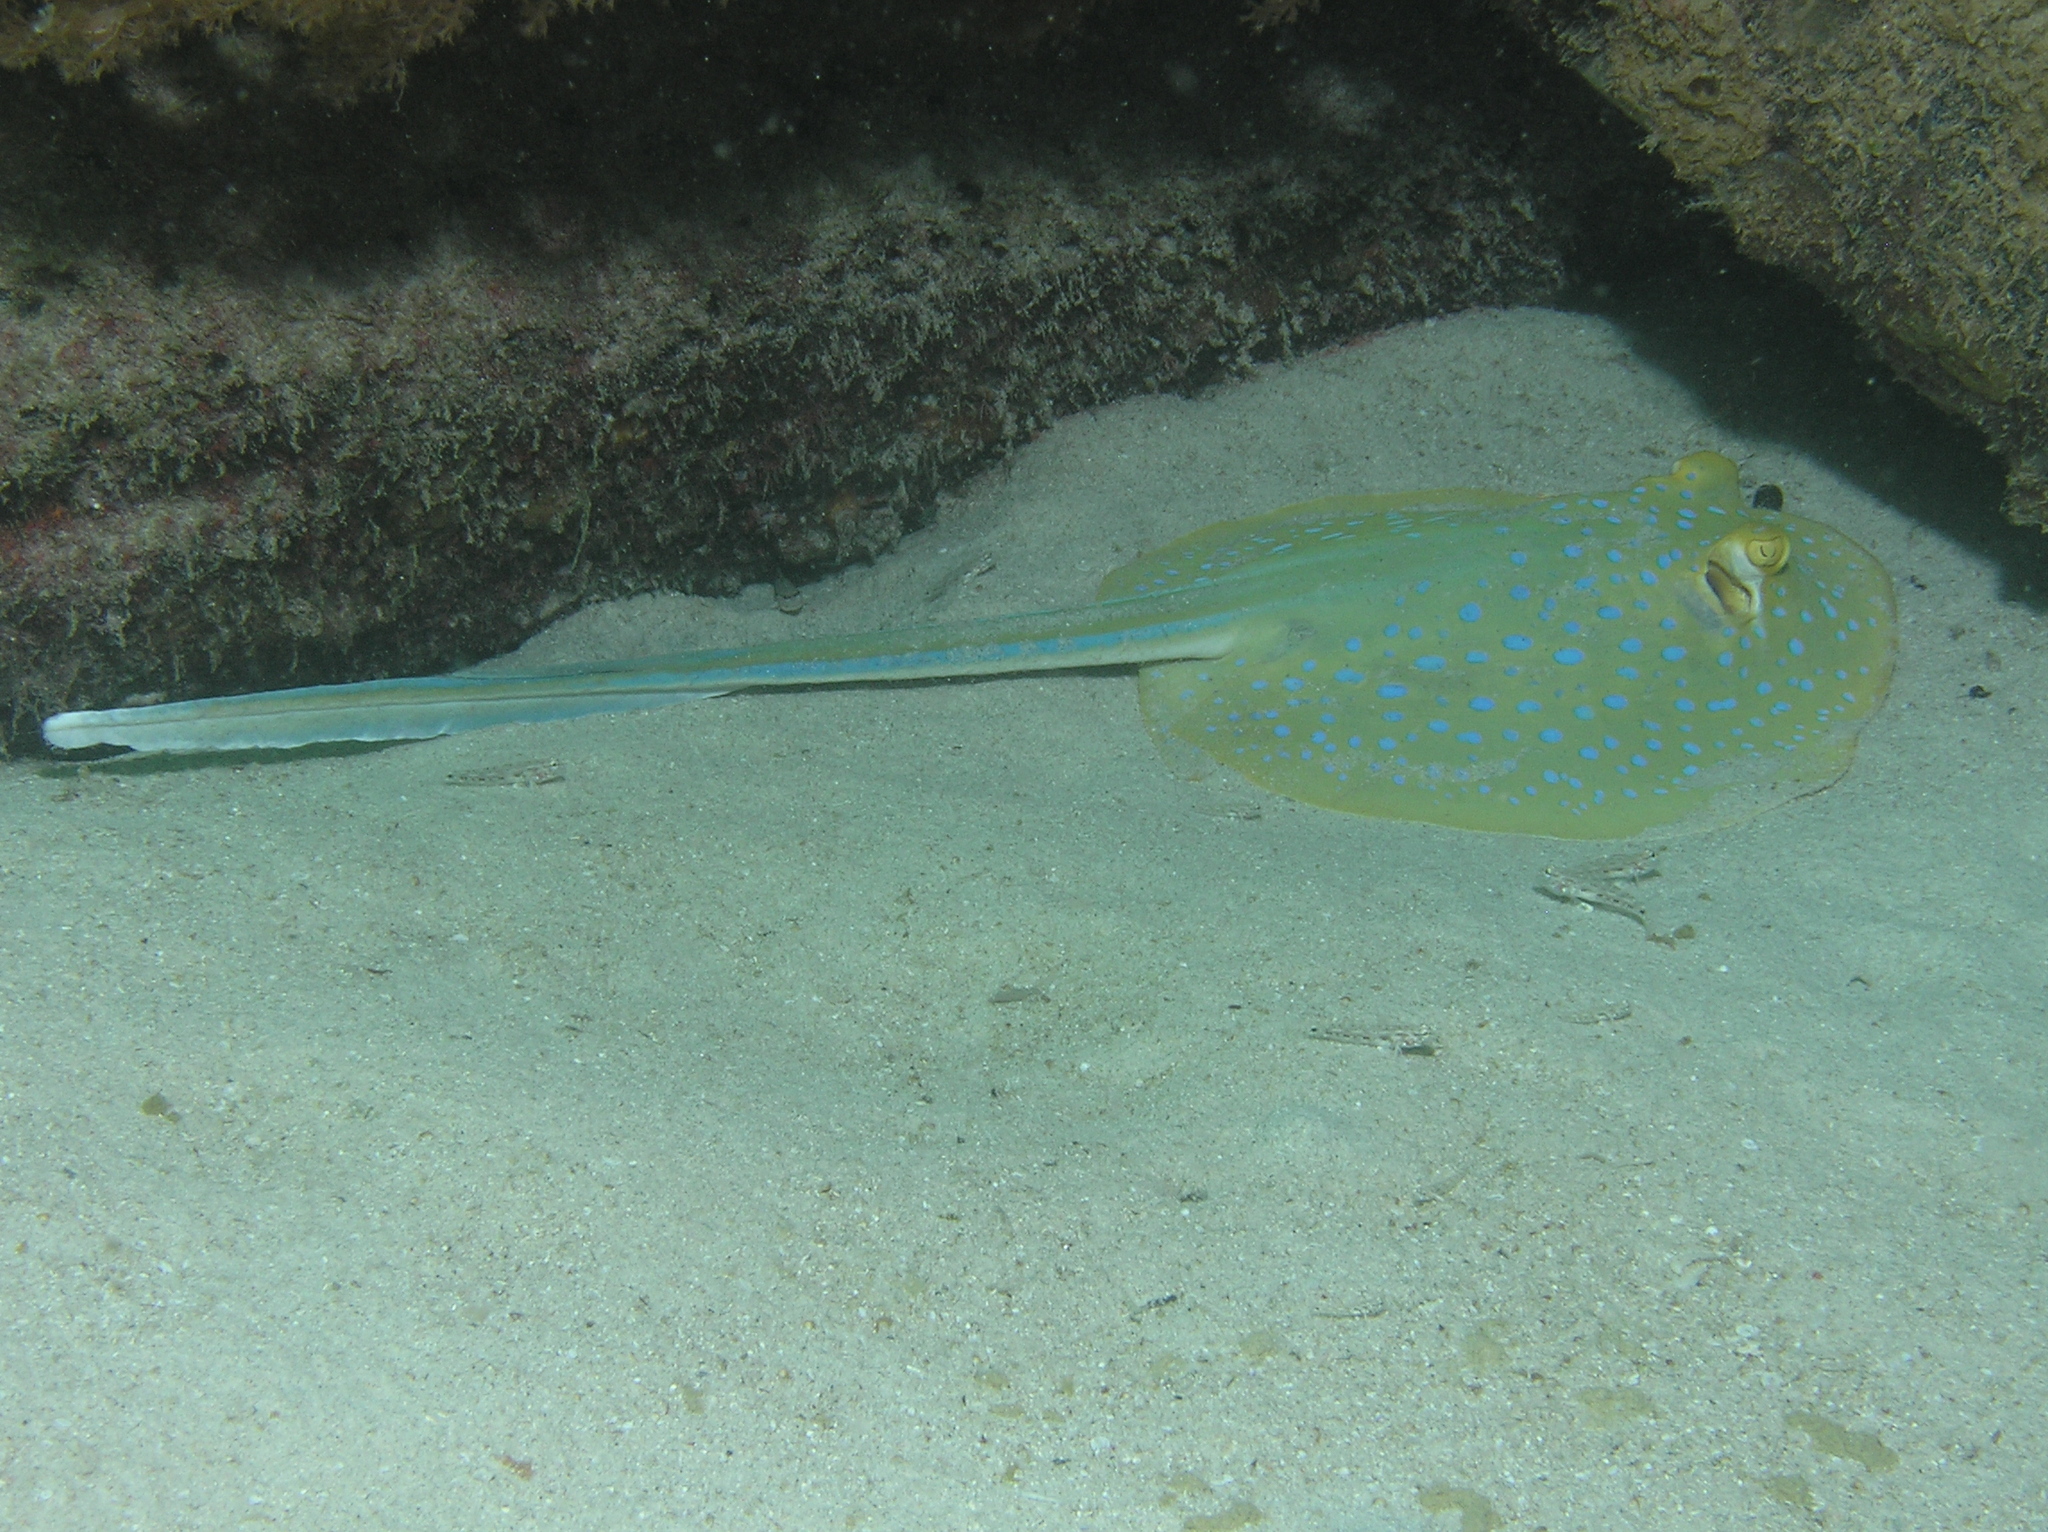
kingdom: Animalia
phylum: Chordata
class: Elasmobranchii
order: Myliobatiformes
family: Dasyatidae
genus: Taeniura
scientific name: Taeniura lymma
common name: Bluespotted ribbontail ray
